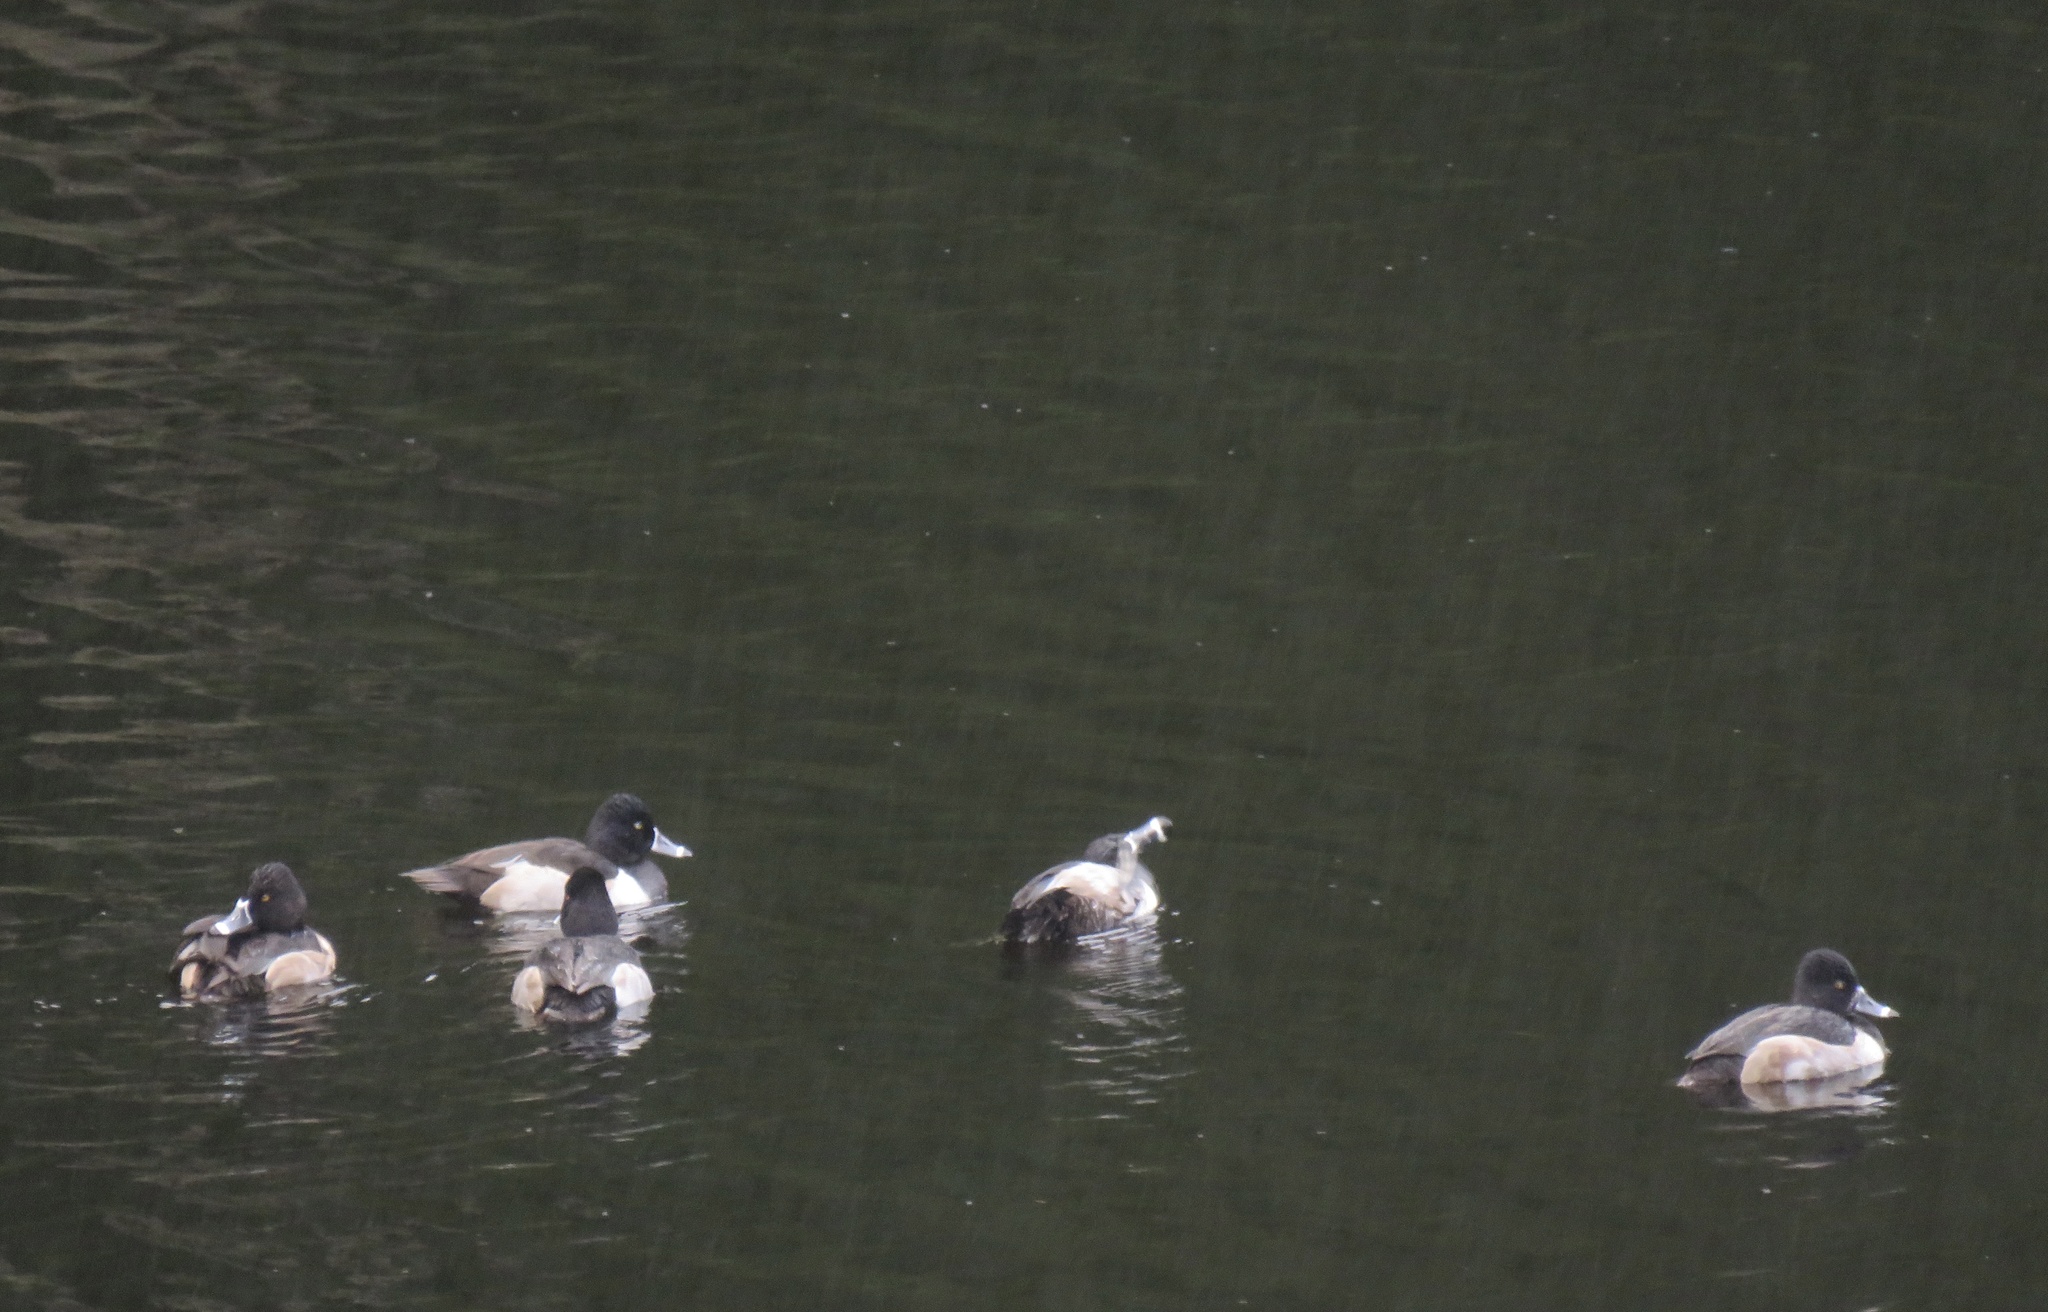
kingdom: Animalia
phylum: Chordata
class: Aves
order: Anseriformes
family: Anatidae
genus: Aythya
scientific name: Aythya collaris
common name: Ring-necked duck
